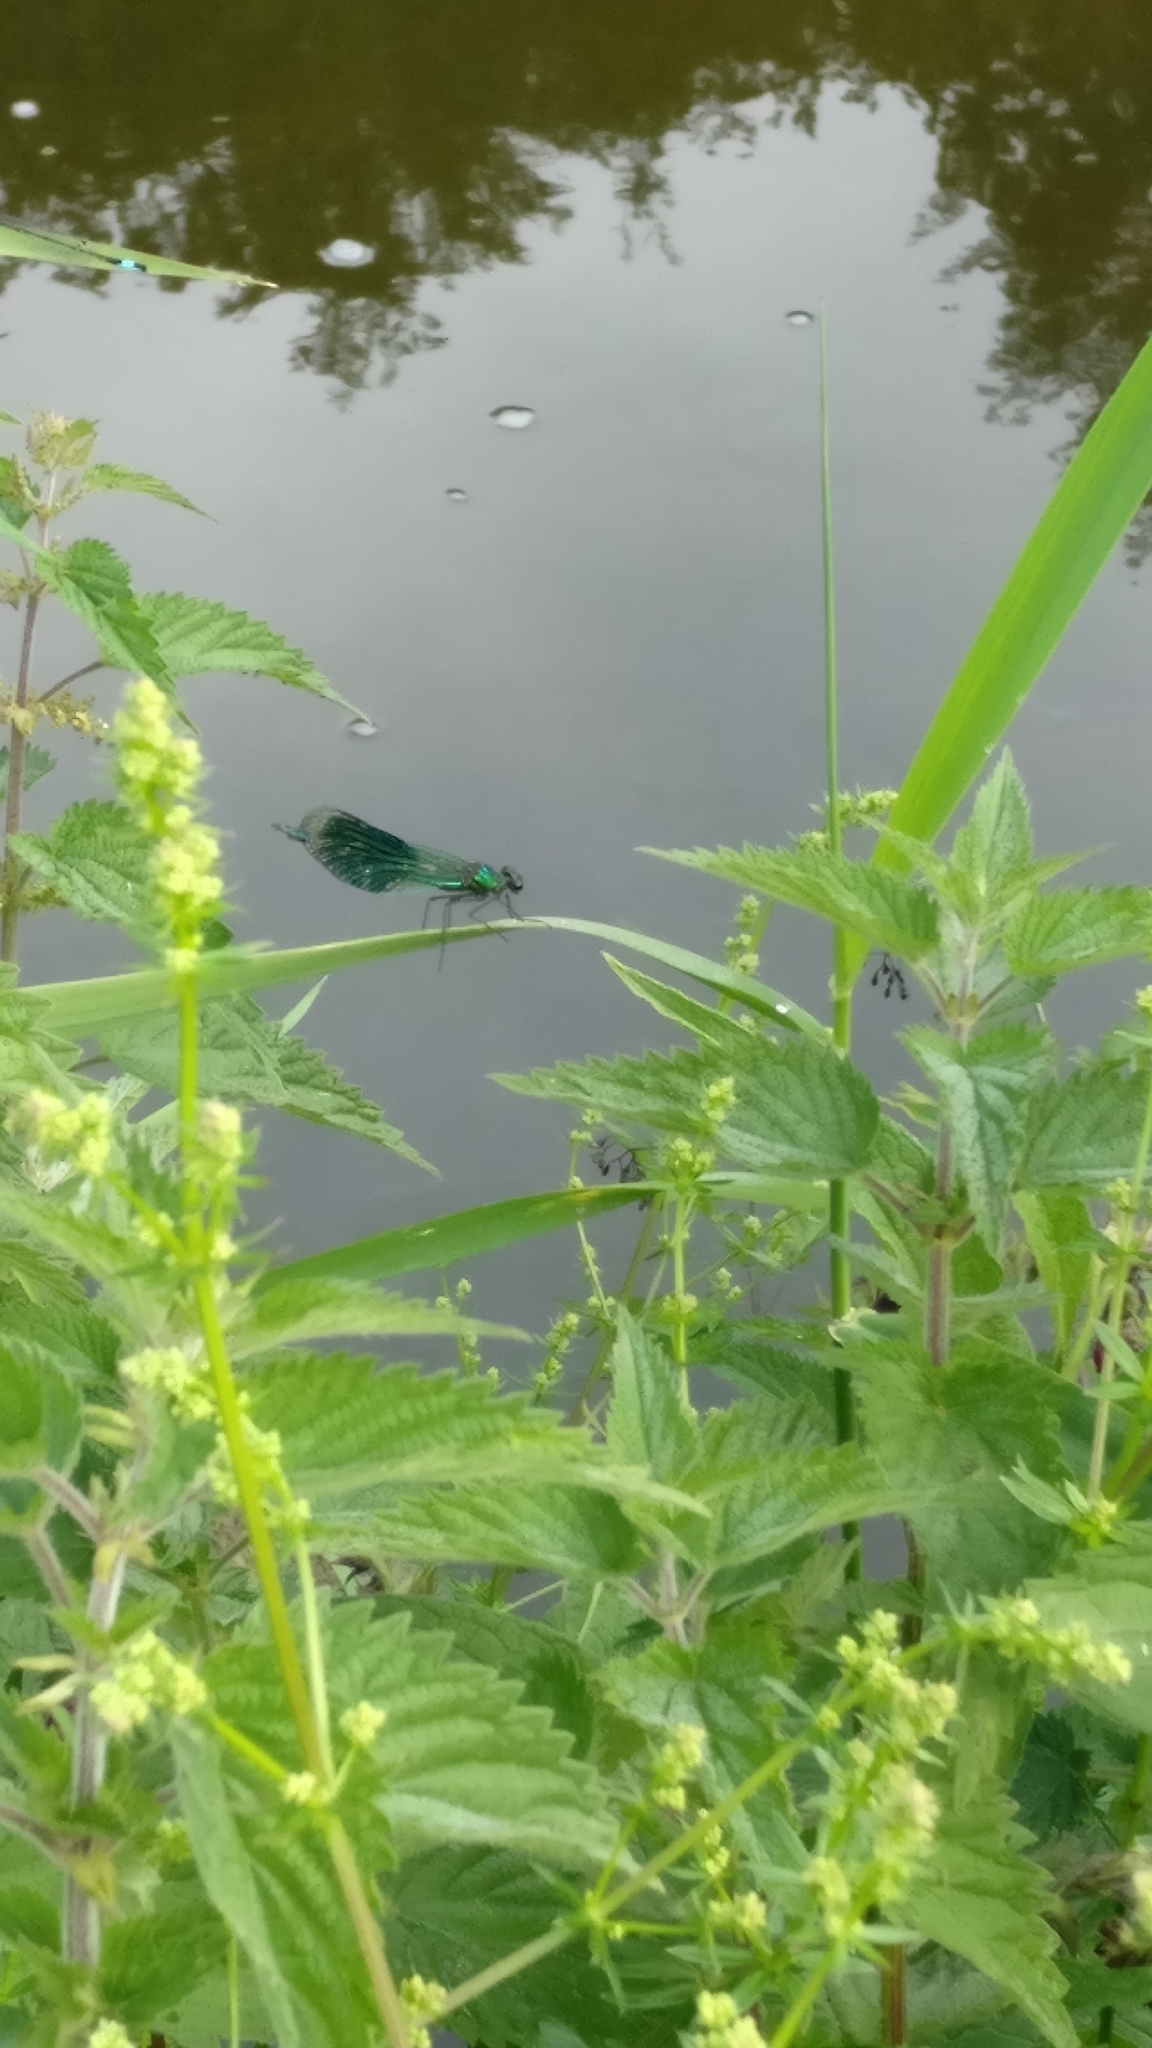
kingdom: Animalia
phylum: Arthropoda
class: Insecta
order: Odonata
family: Calopterygidae
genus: Calopteryx
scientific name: Calopteryx splendens
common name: Banded demoiselle
